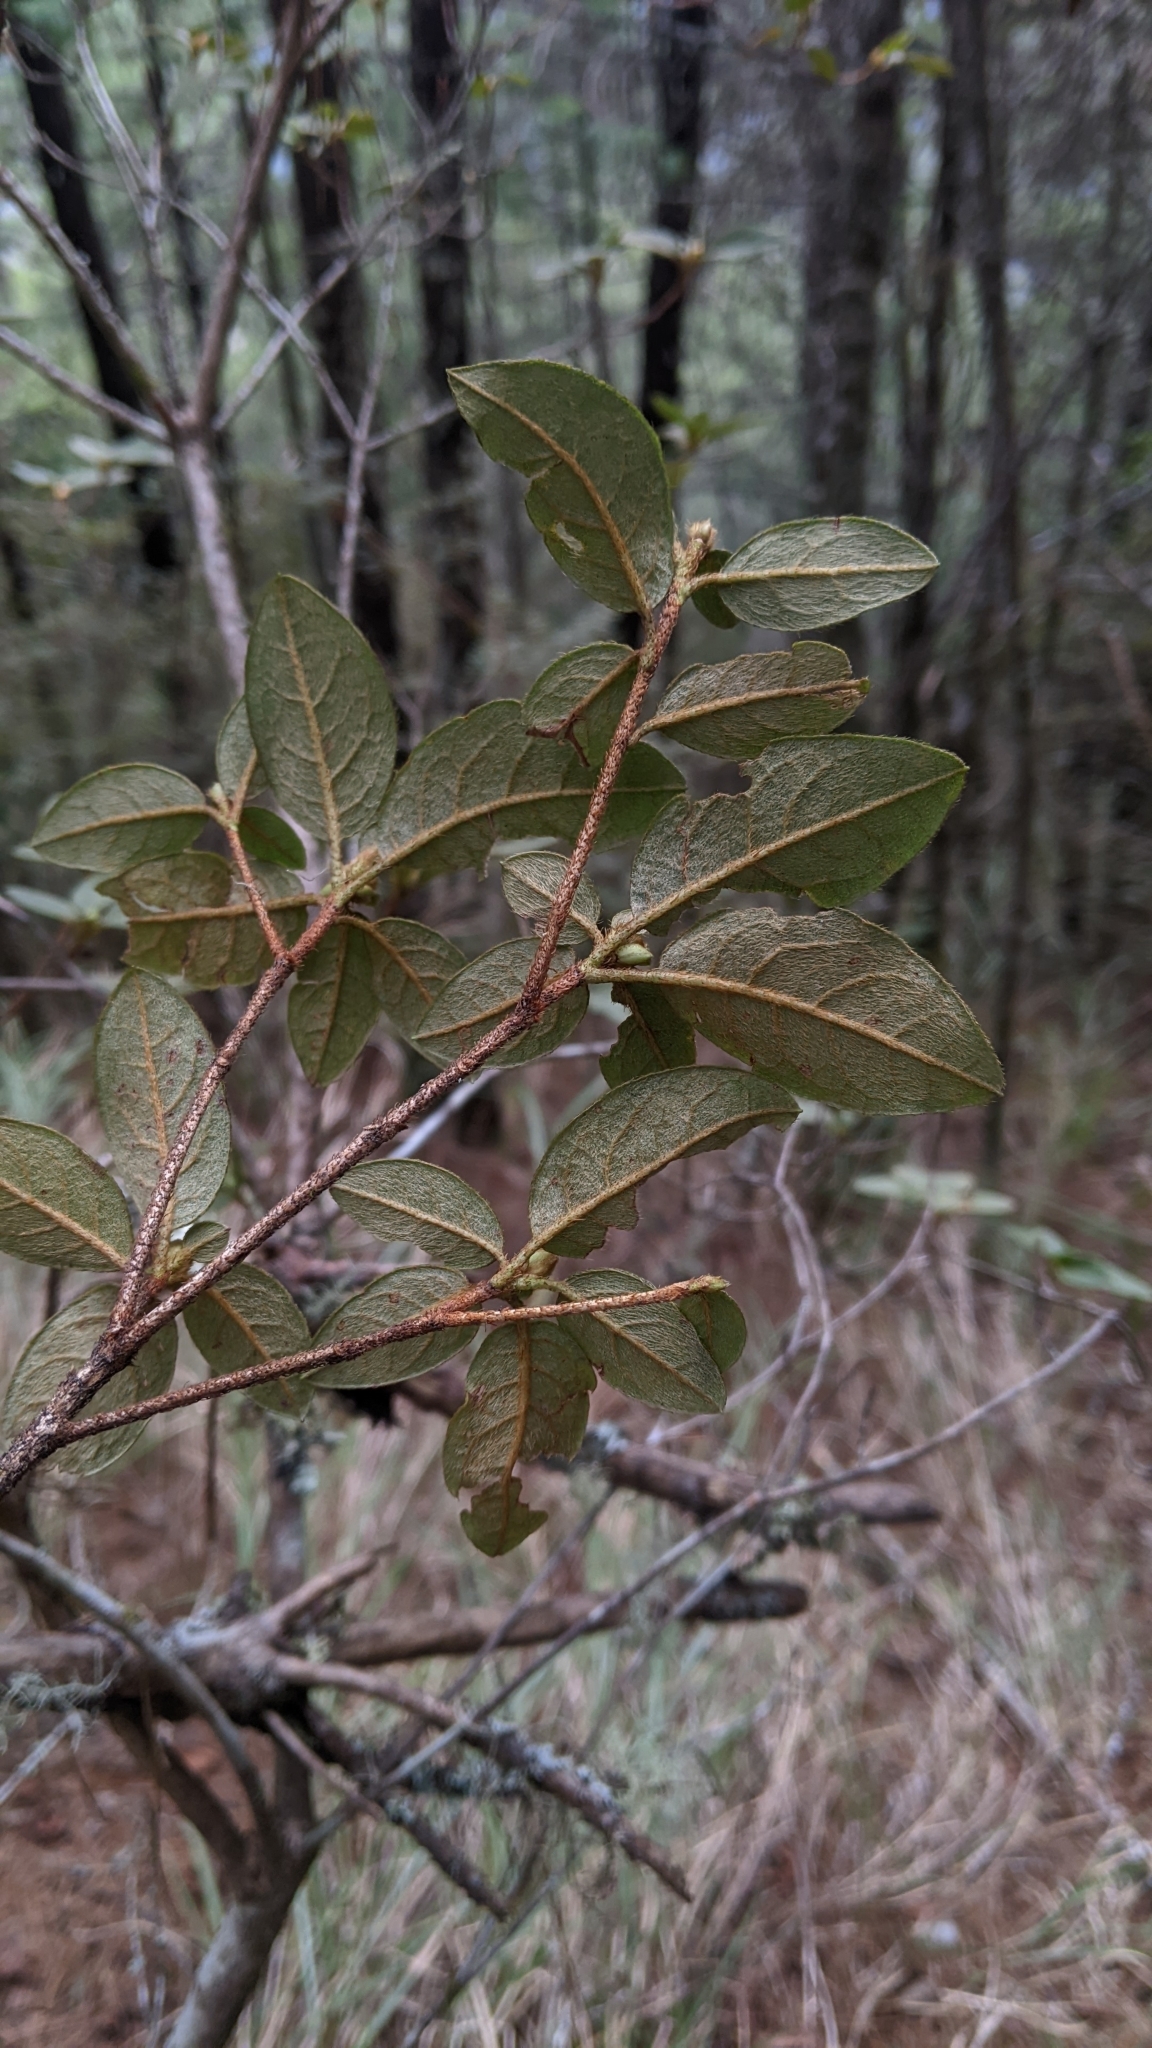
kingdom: Plantae
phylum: Tracheophyta
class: Magnoliopsida
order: Ericales
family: Ericaceae
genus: Rhododendron
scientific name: Rhododendron rubropilosum
